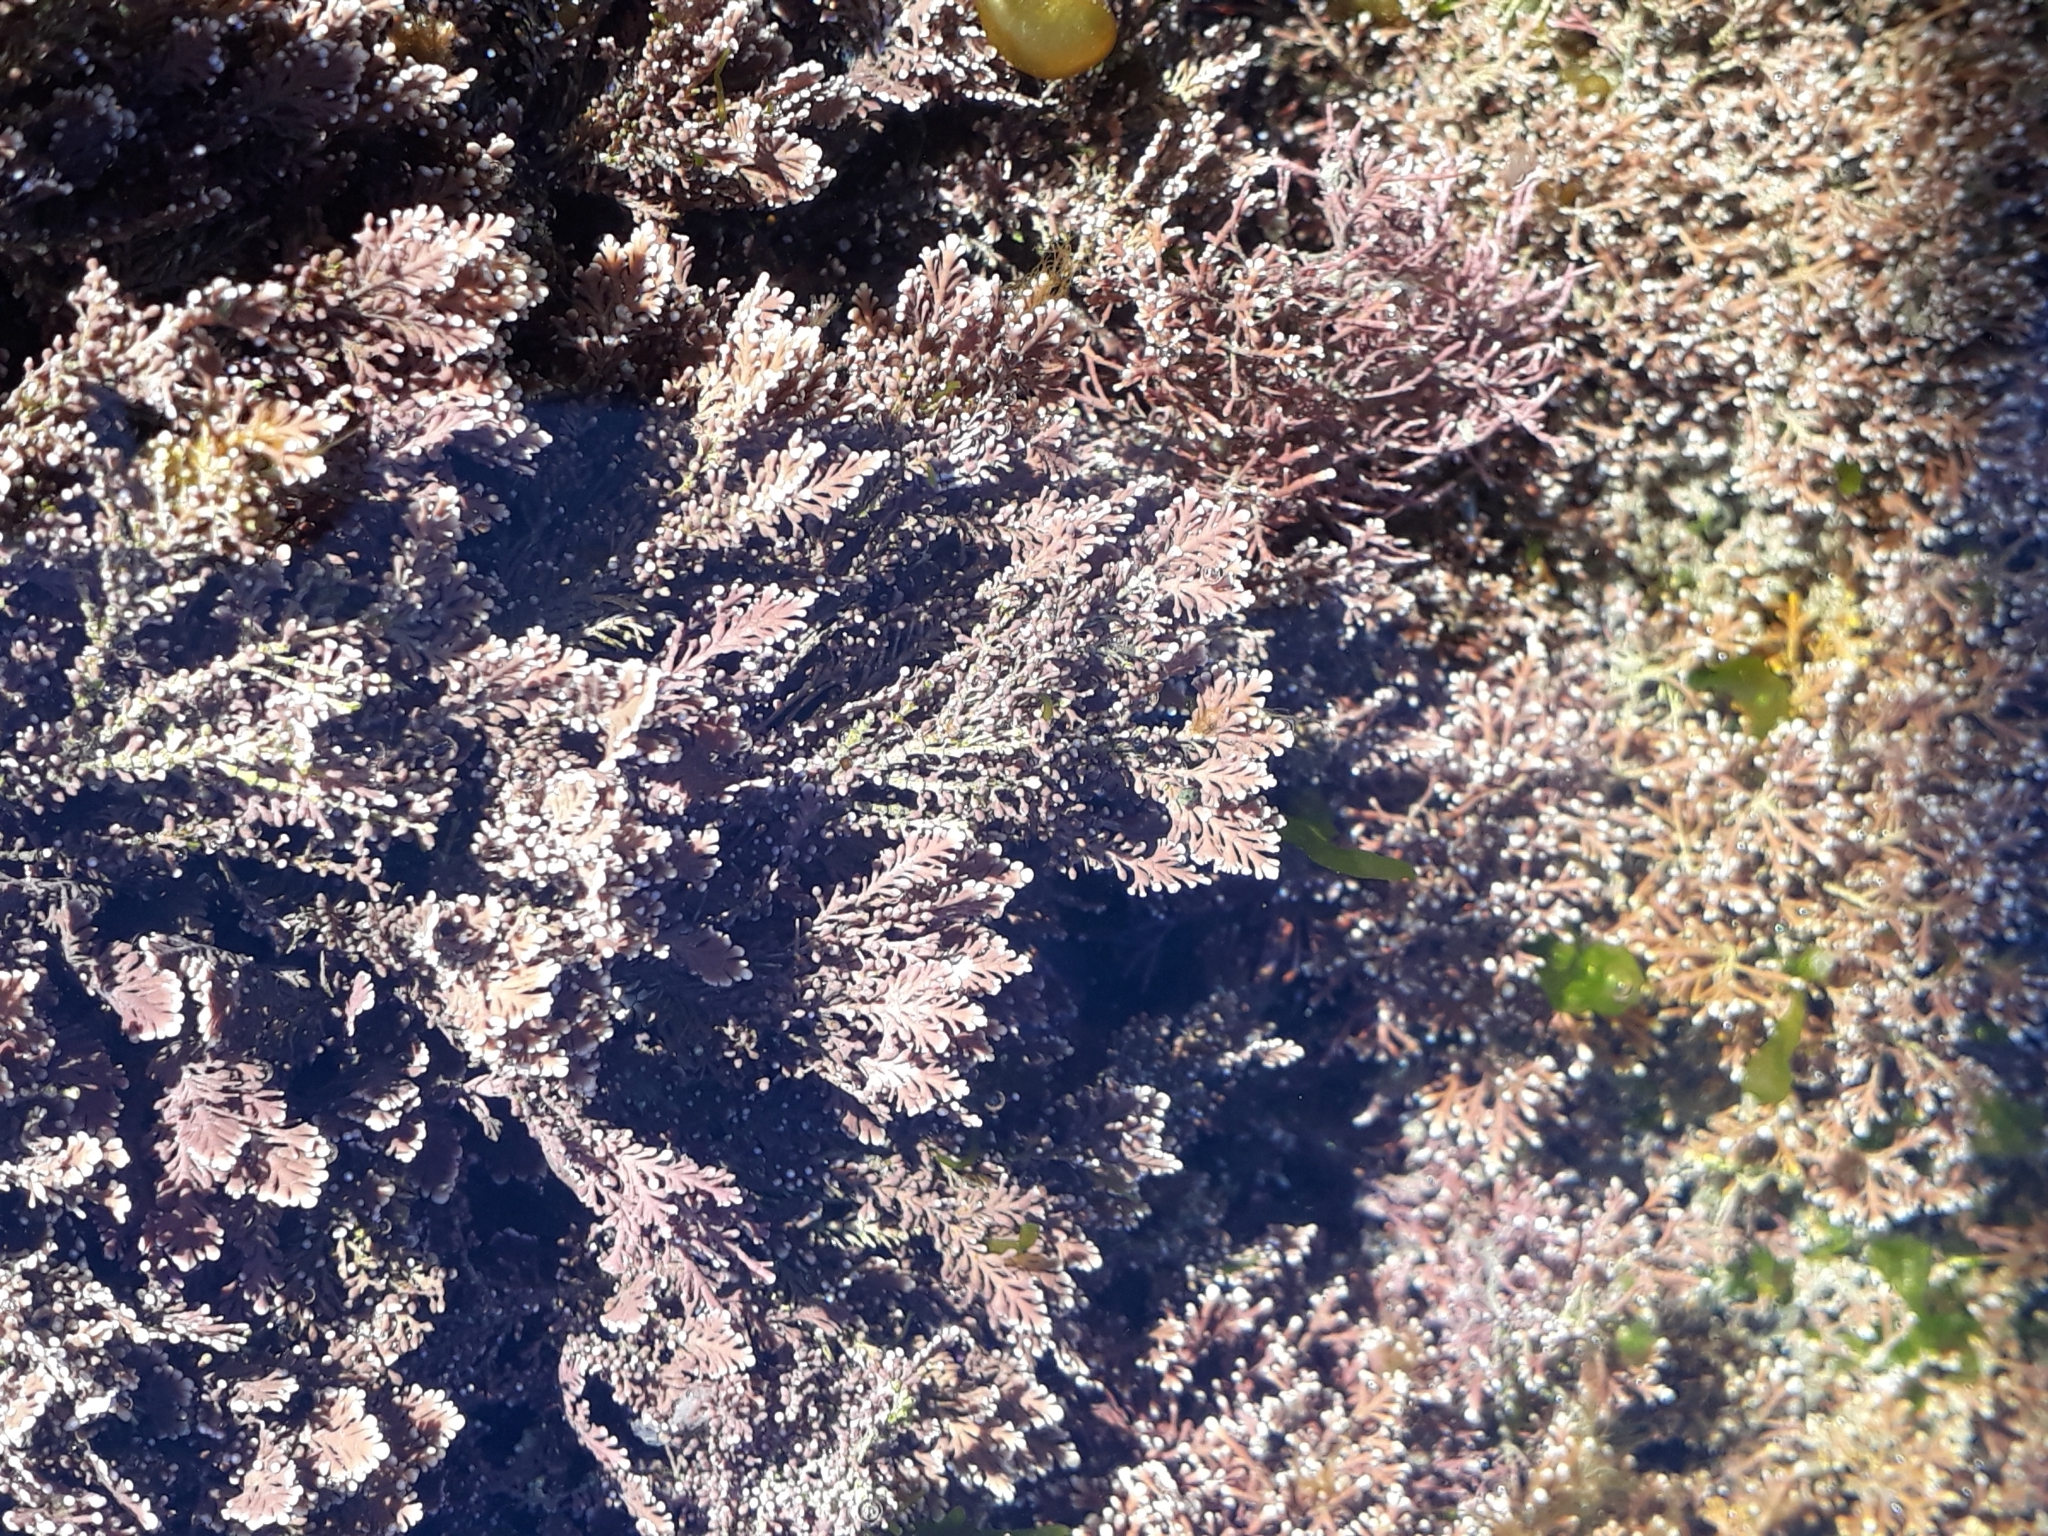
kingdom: Plantae
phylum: Rhodophyta
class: Florideophyceae
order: Corallinales
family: Corallinaceae
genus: Corallina
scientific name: Corallina officinalis
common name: Coral weed
